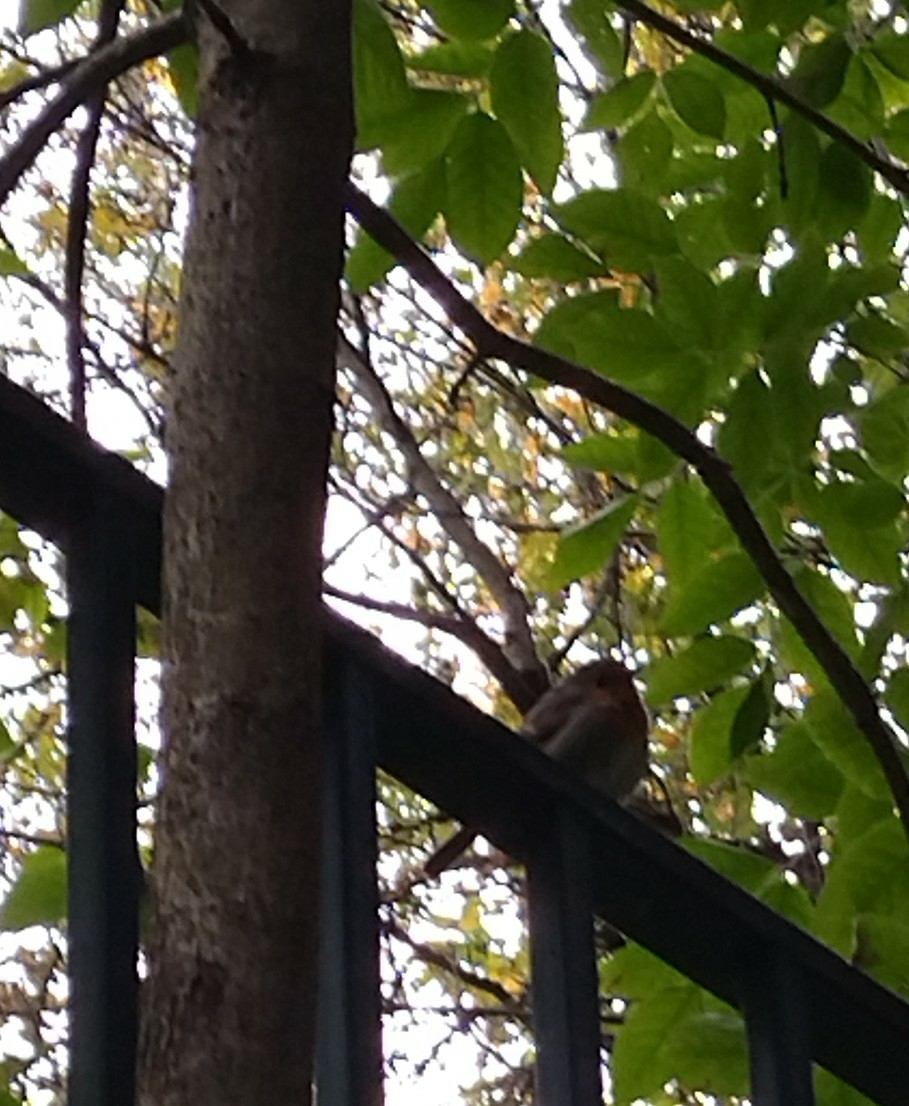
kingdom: Animalia
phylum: Chordata
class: Aves
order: Passeriformes
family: Muscicapidae
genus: Erithacus
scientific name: Erithacus rubecula
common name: European robin
